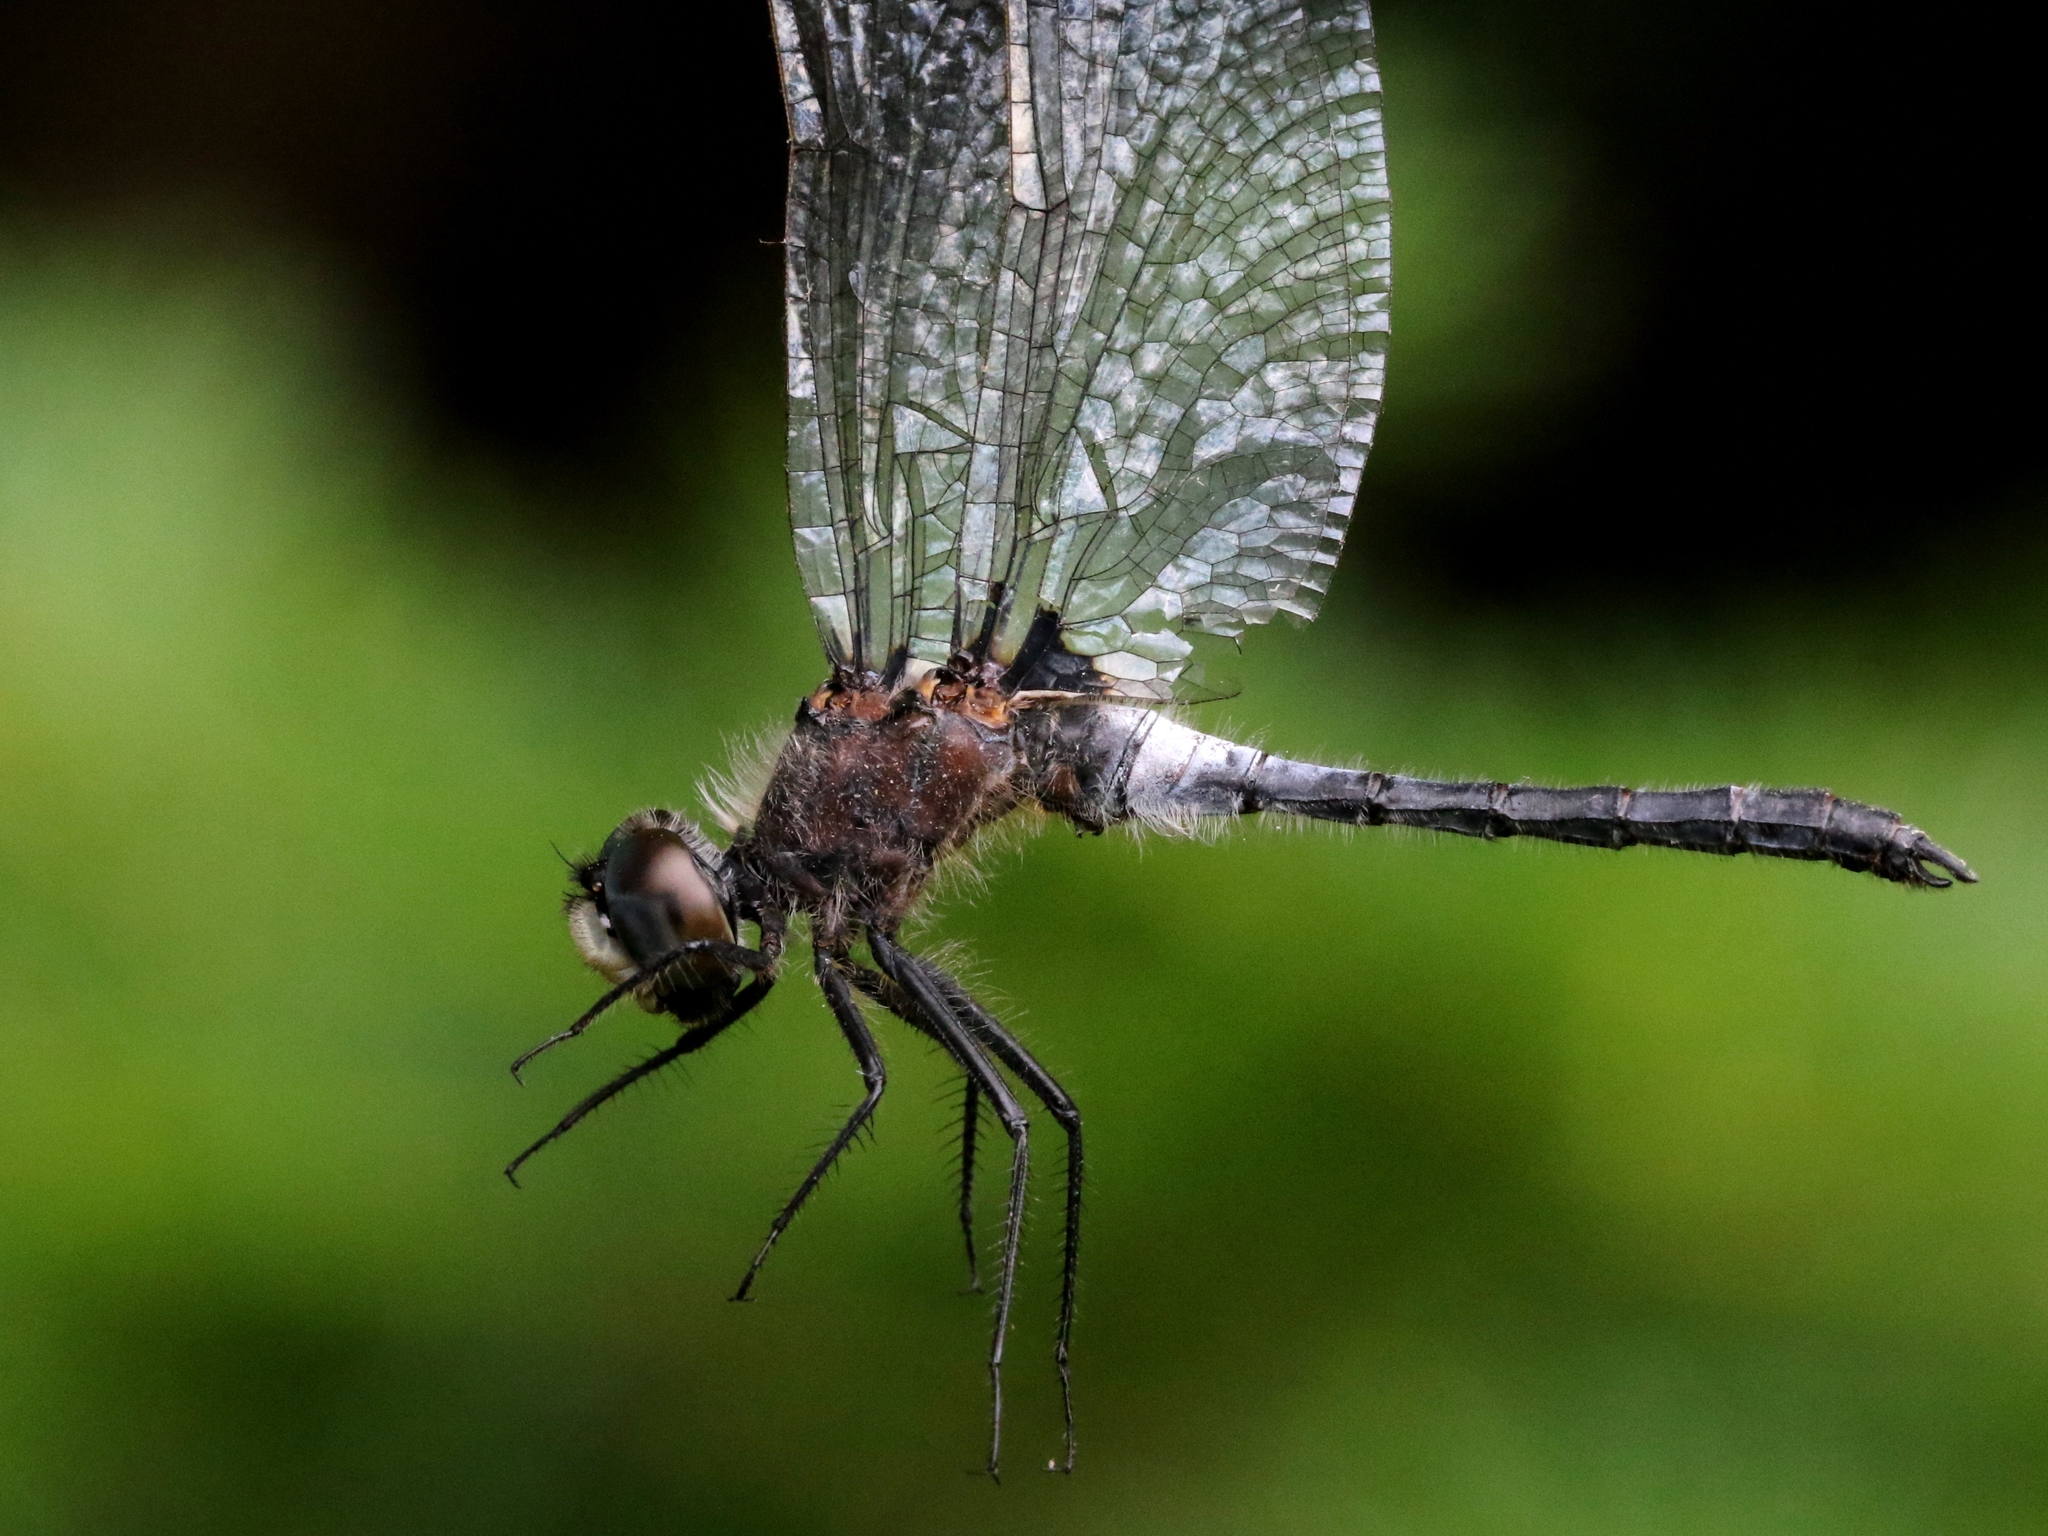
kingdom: Animalia
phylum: Arthropoda
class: Insecta
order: Odonata
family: Libellulidae
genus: Leucorrhinia
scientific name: Leucorrhinia frigida
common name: Frosted whiteface
